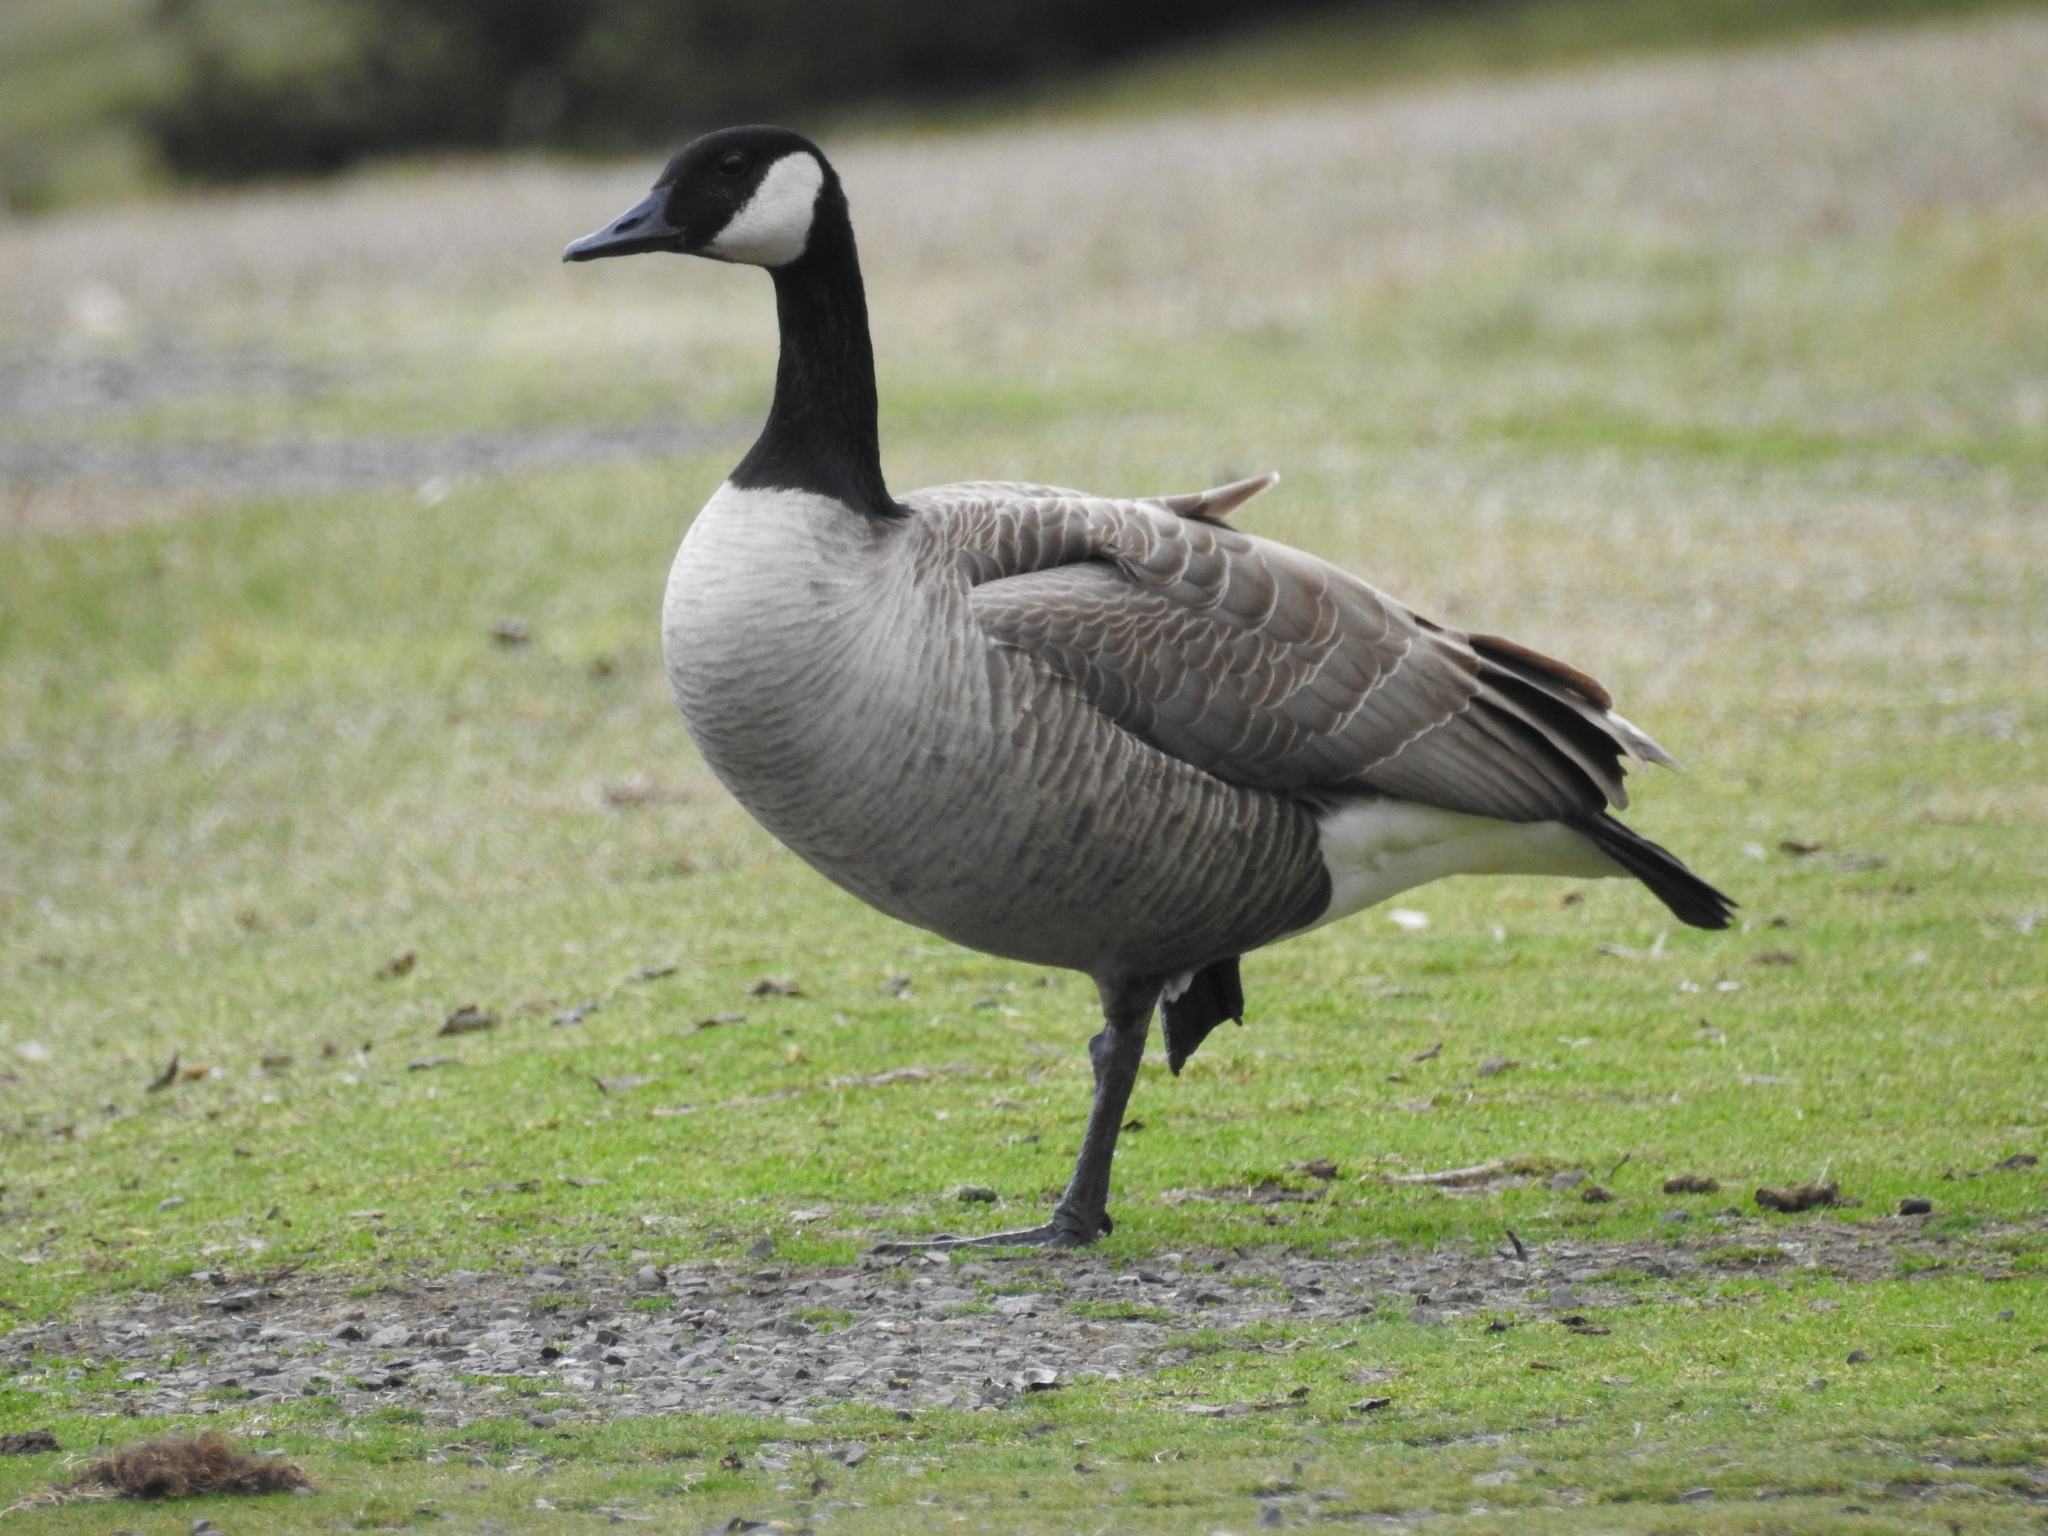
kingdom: Animalia
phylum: Chordata
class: Aves
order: Anseriformes
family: Anatidae
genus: Branta
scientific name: Branta canadensis
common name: Canada goose
